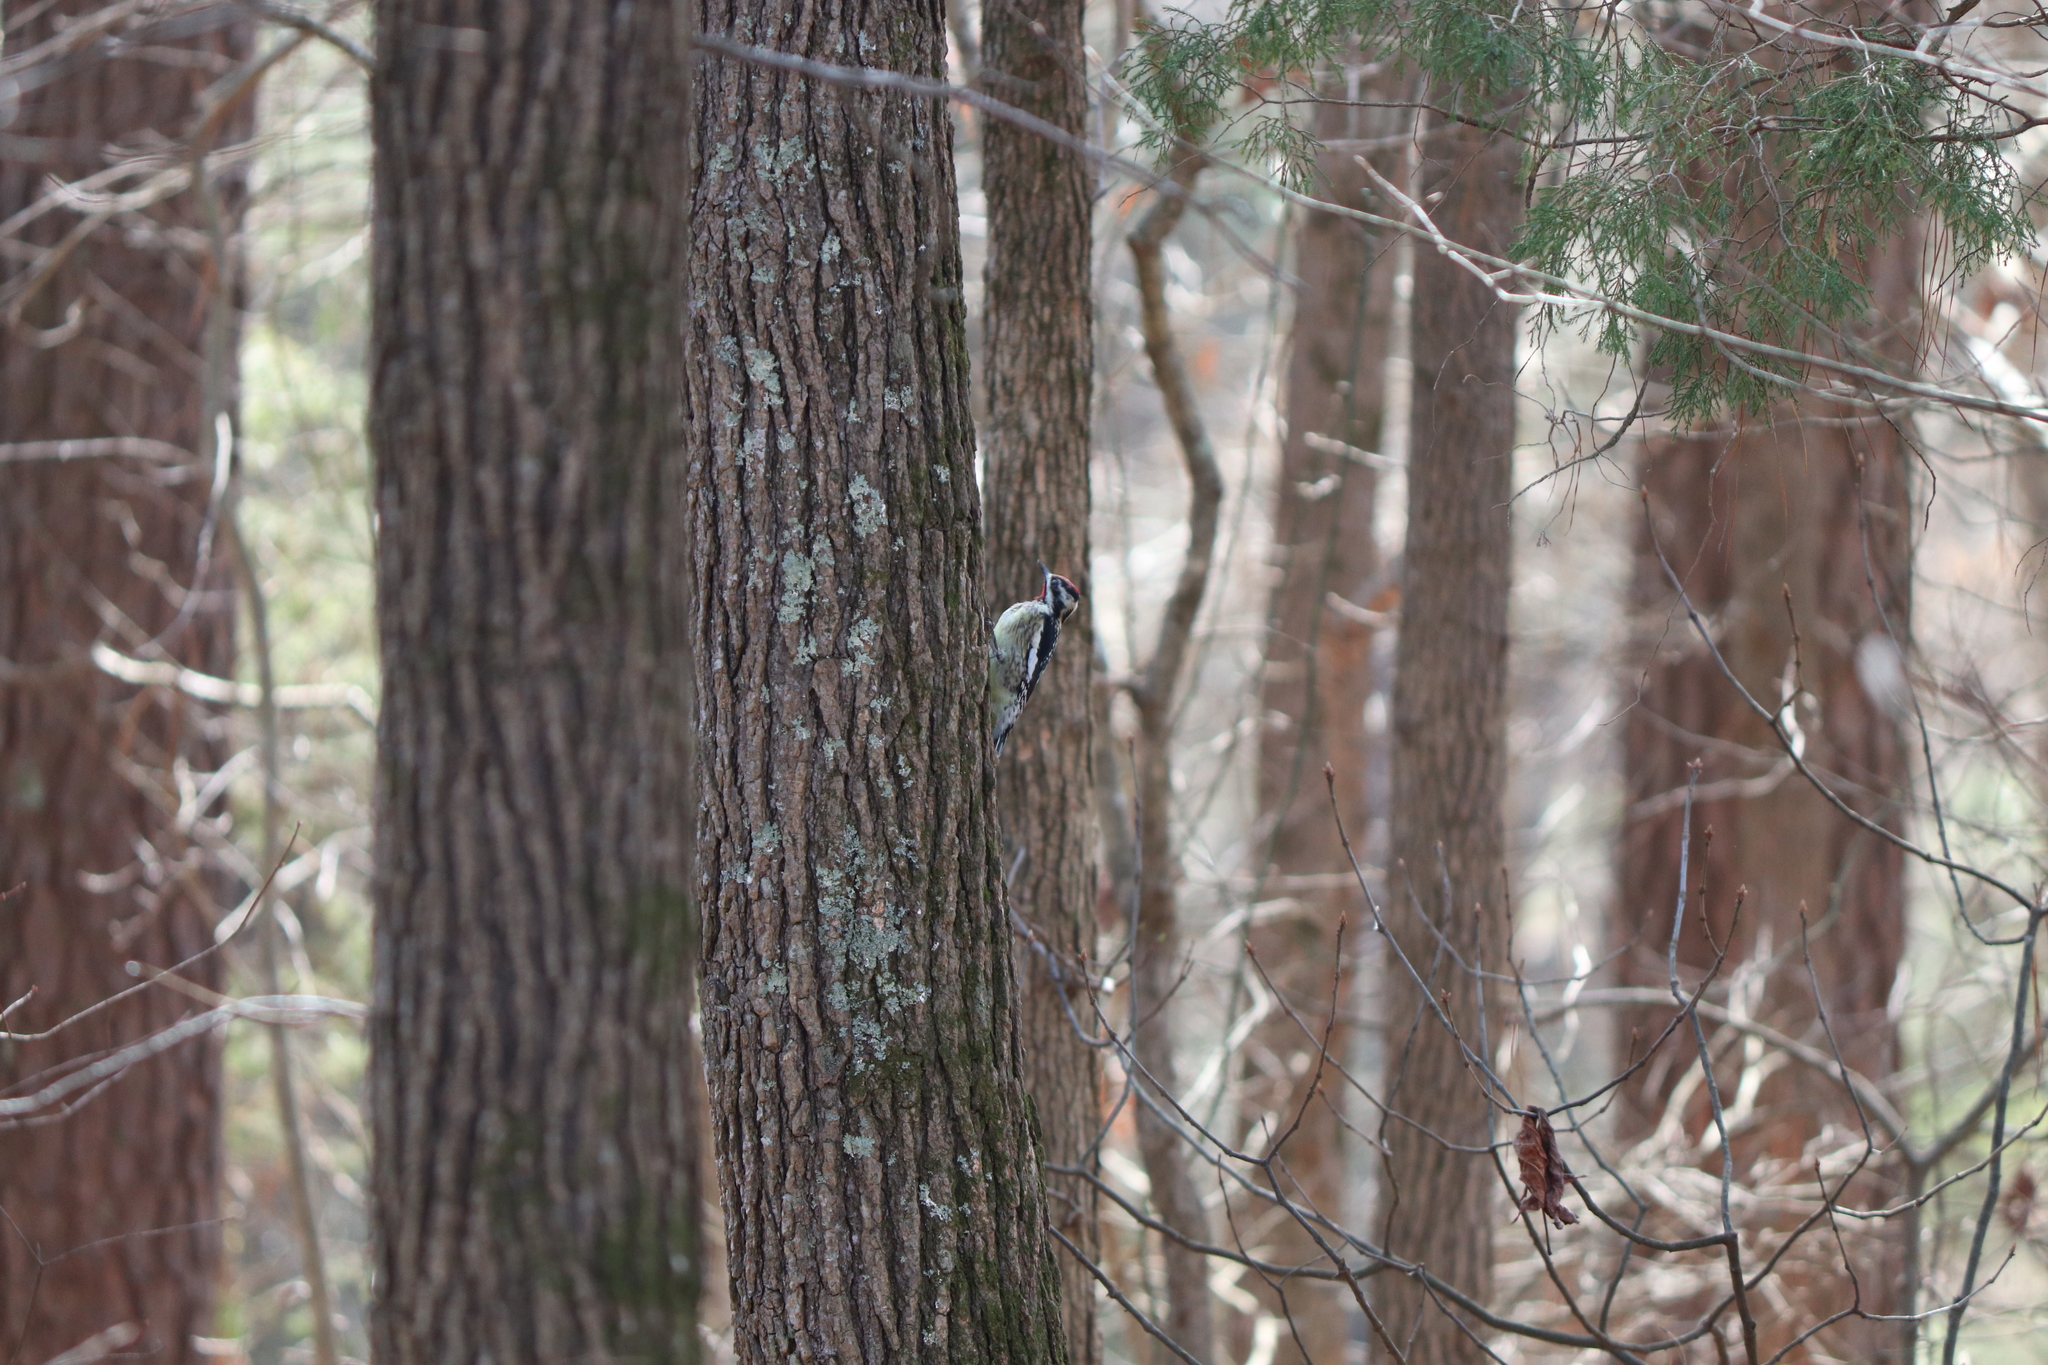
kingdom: Animalia
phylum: Chordata
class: Aves
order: Piciformes
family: Picidae
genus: Sphyrapicus
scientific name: Sphyrapicus varius
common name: Yellow-bellied sapsucker
